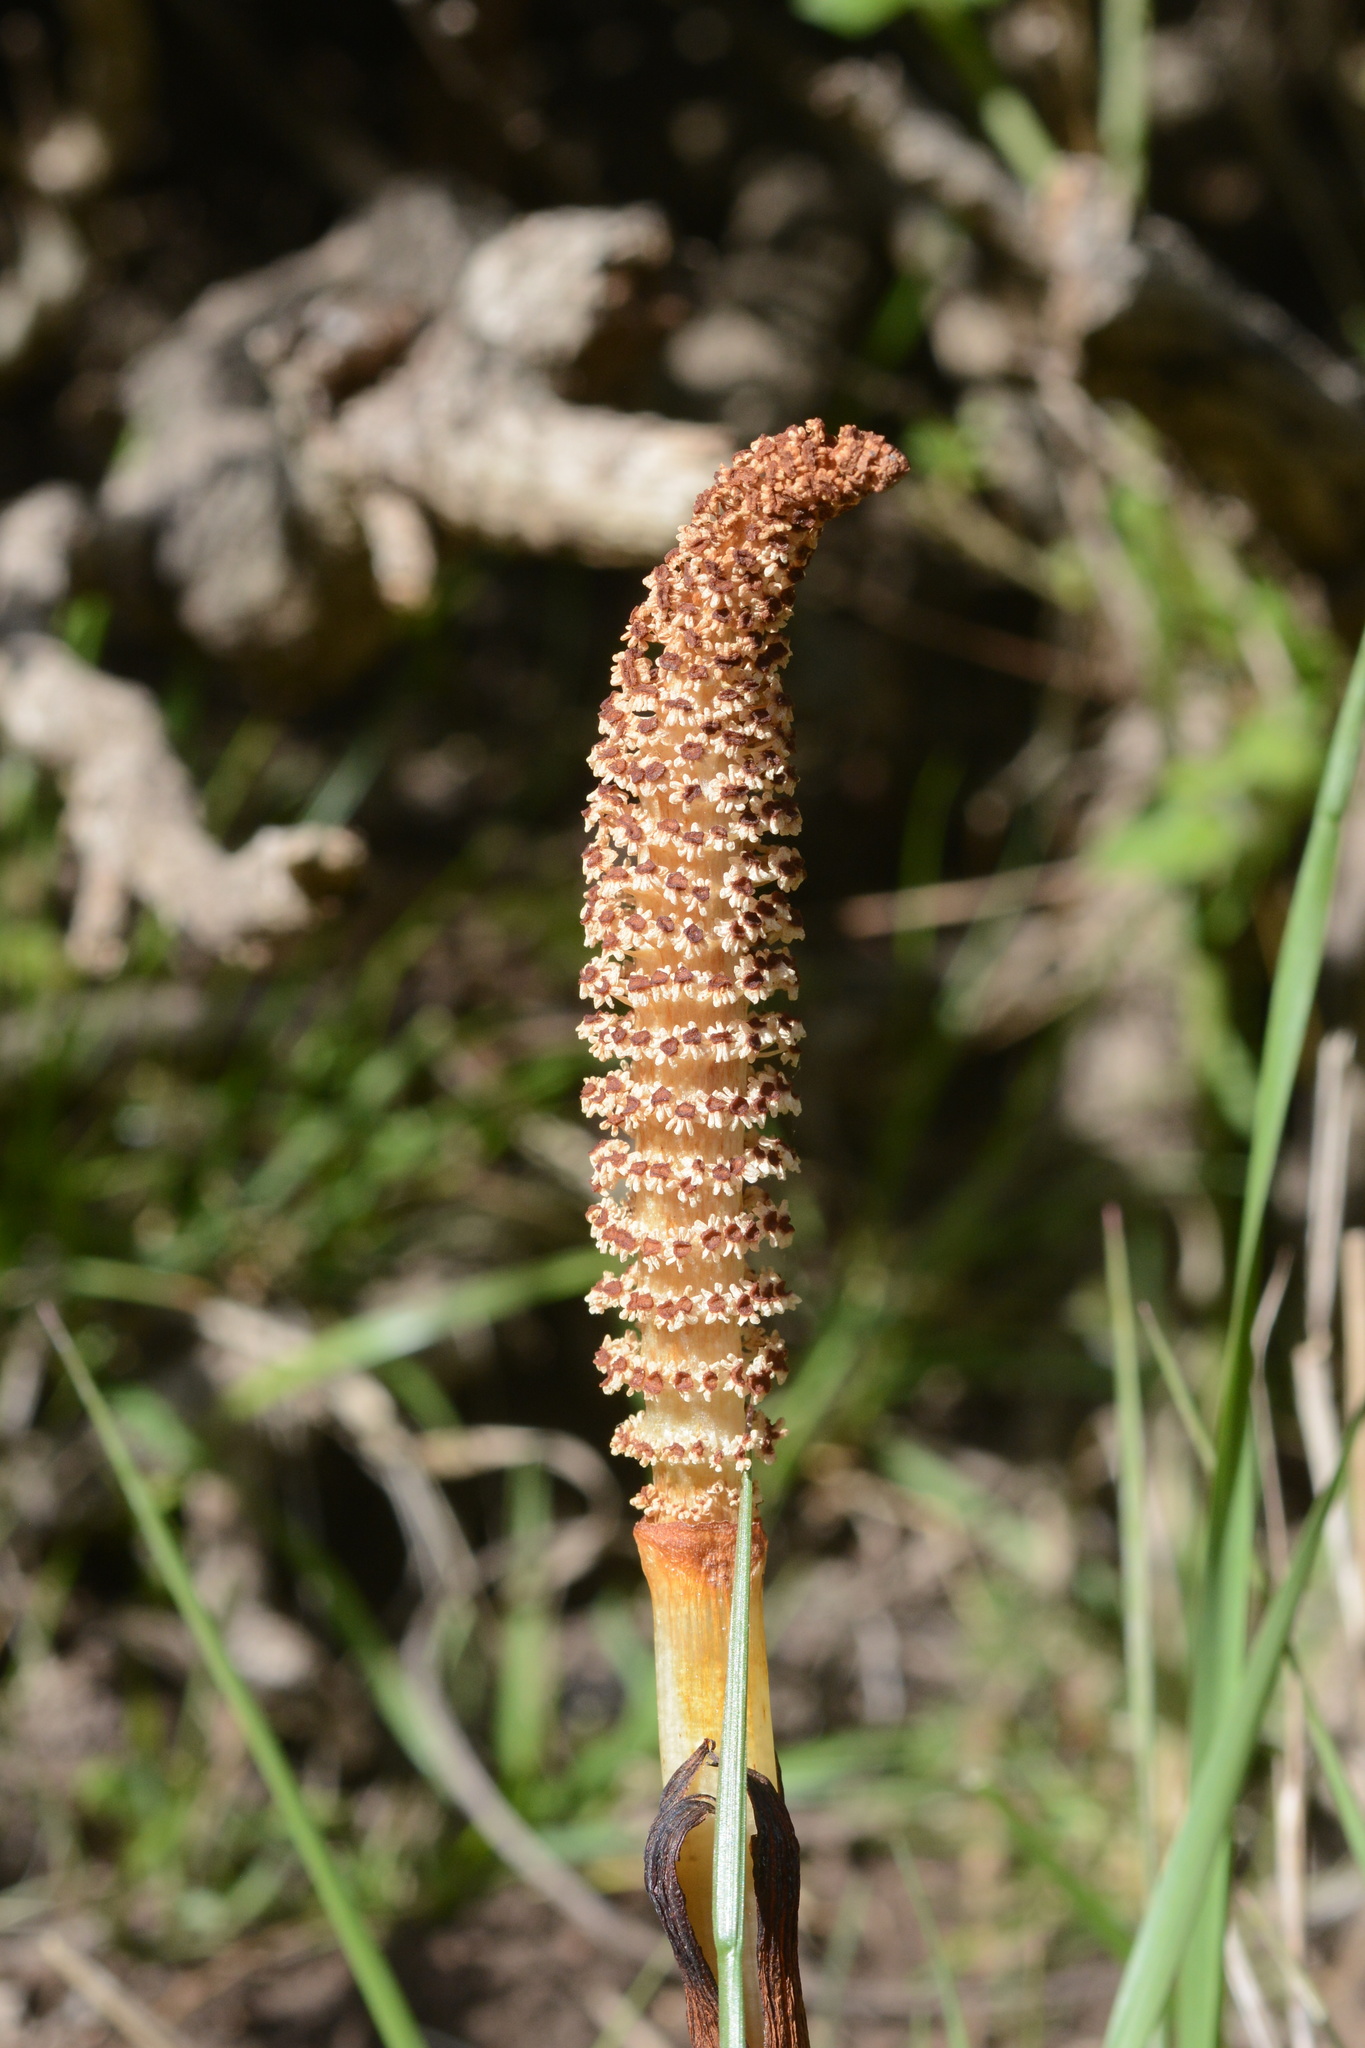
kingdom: Plantae
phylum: Tracheophyta
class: Polypodiopsida
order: Equisetales
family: Equisetaceae
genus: Equisetum
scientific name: Equisetum braunii
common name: Braun's horsetail
